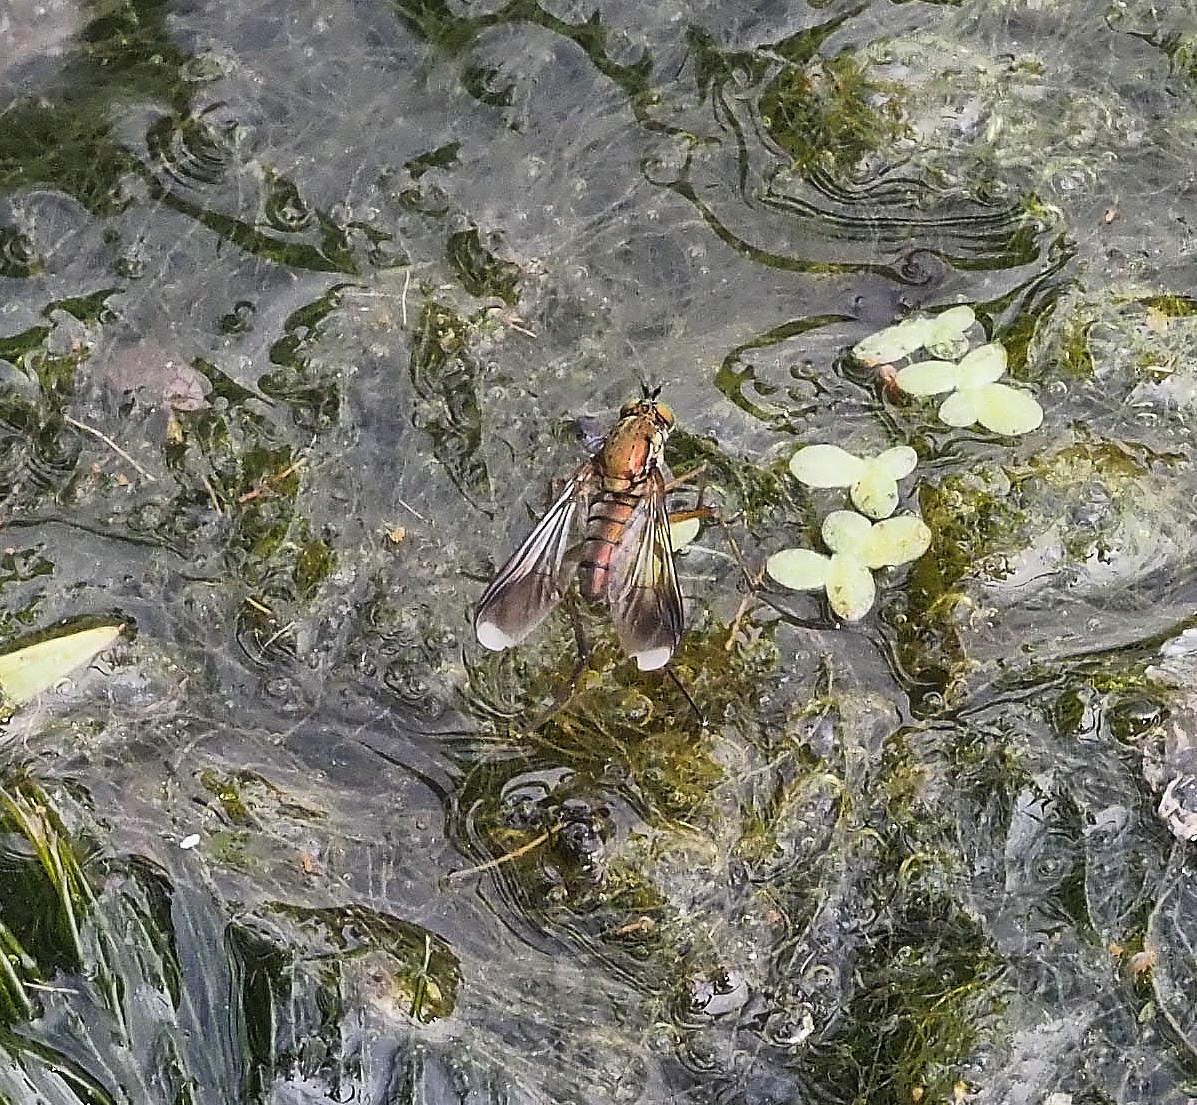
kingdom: Animalia
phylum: Arthropoda
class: Insecta
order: Diptera
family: Dolichopodidae
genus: Poecilobothrus
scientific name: Poecilobothrus nobilitatus
